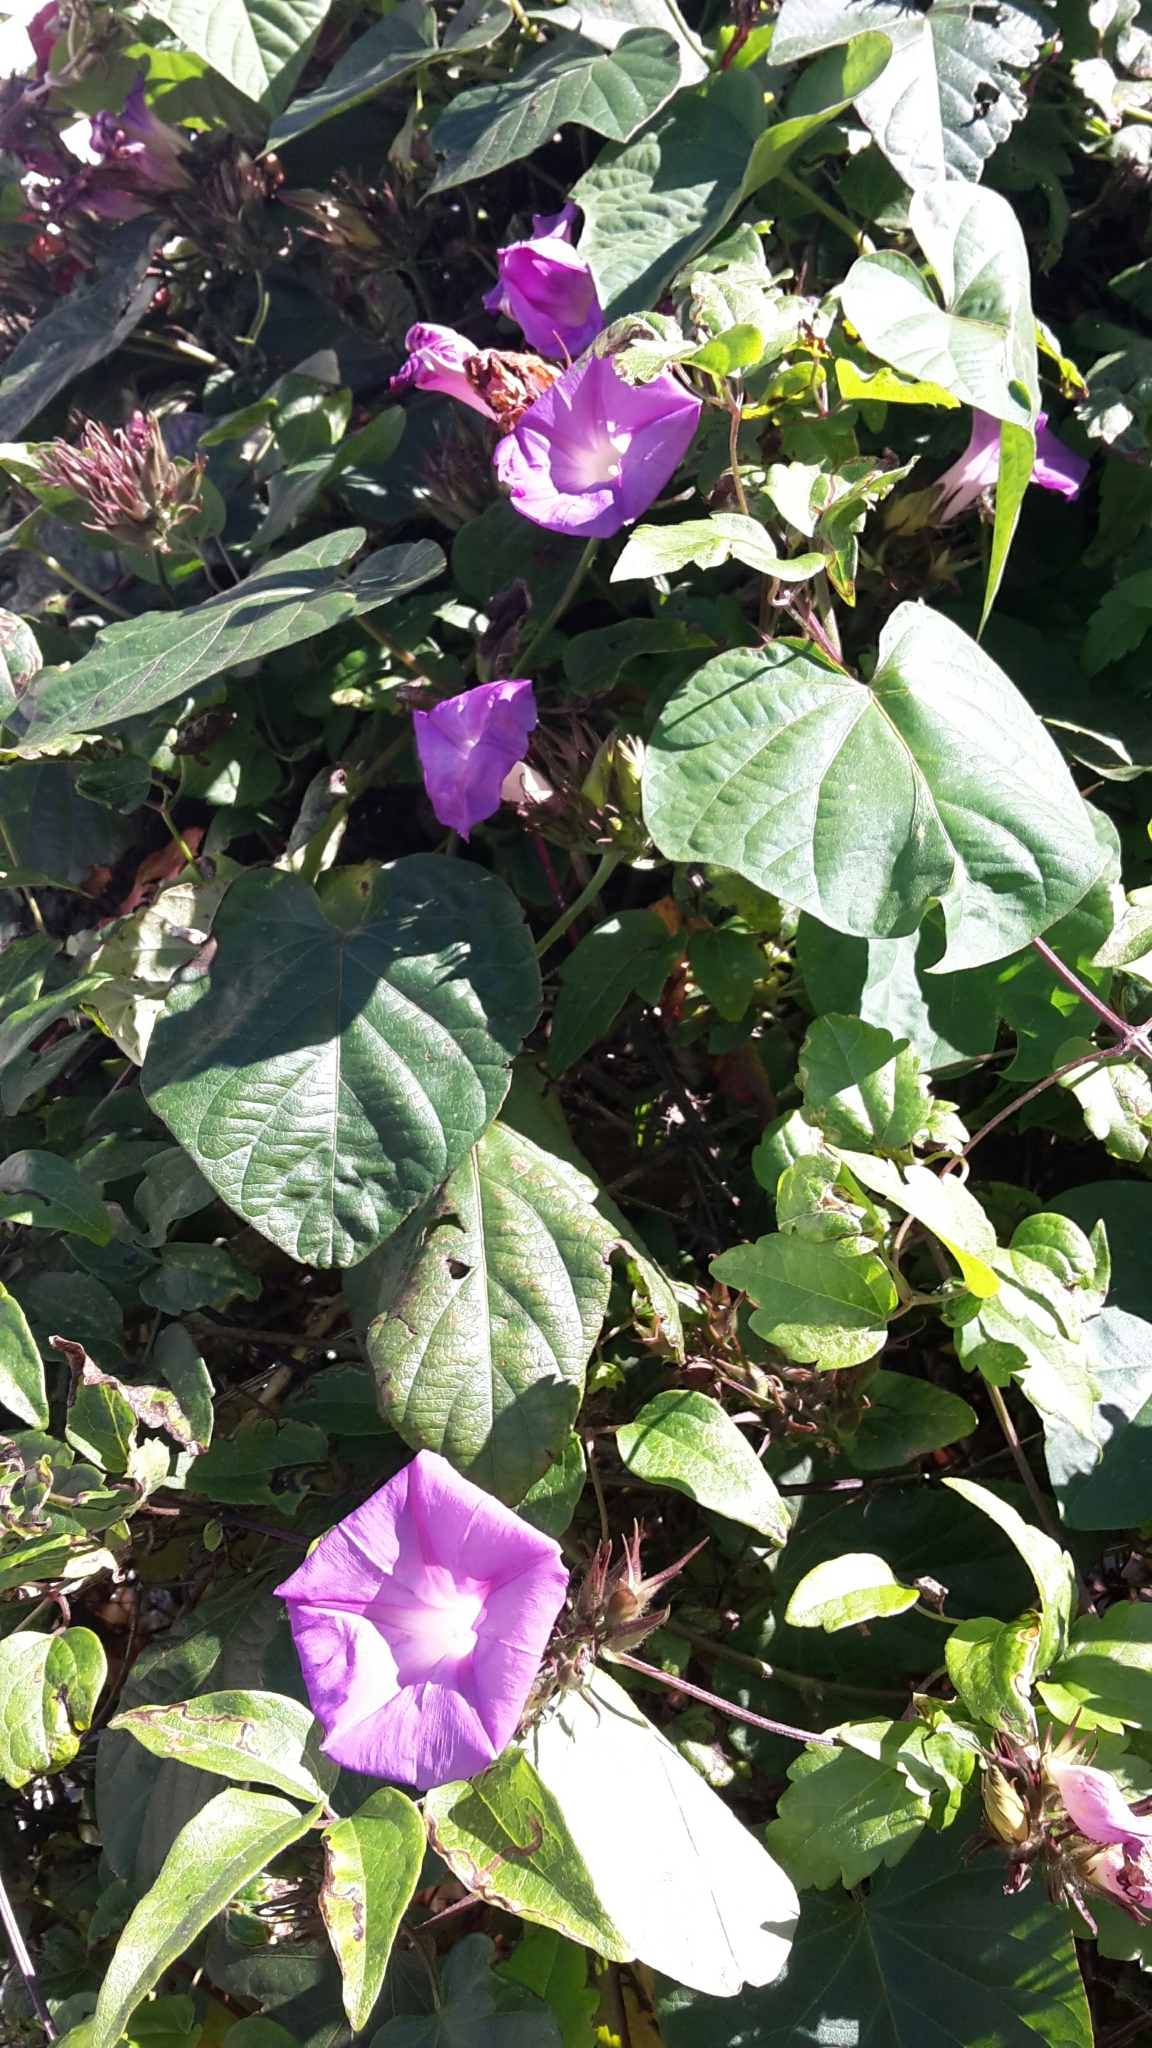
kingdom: Plantae
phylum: Tracheophyta
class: Magnoliopsida
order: Solanales
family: Convolvulaceae
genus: Ipomoea
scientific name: Ipomoea indica
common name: Blue dawnflower
